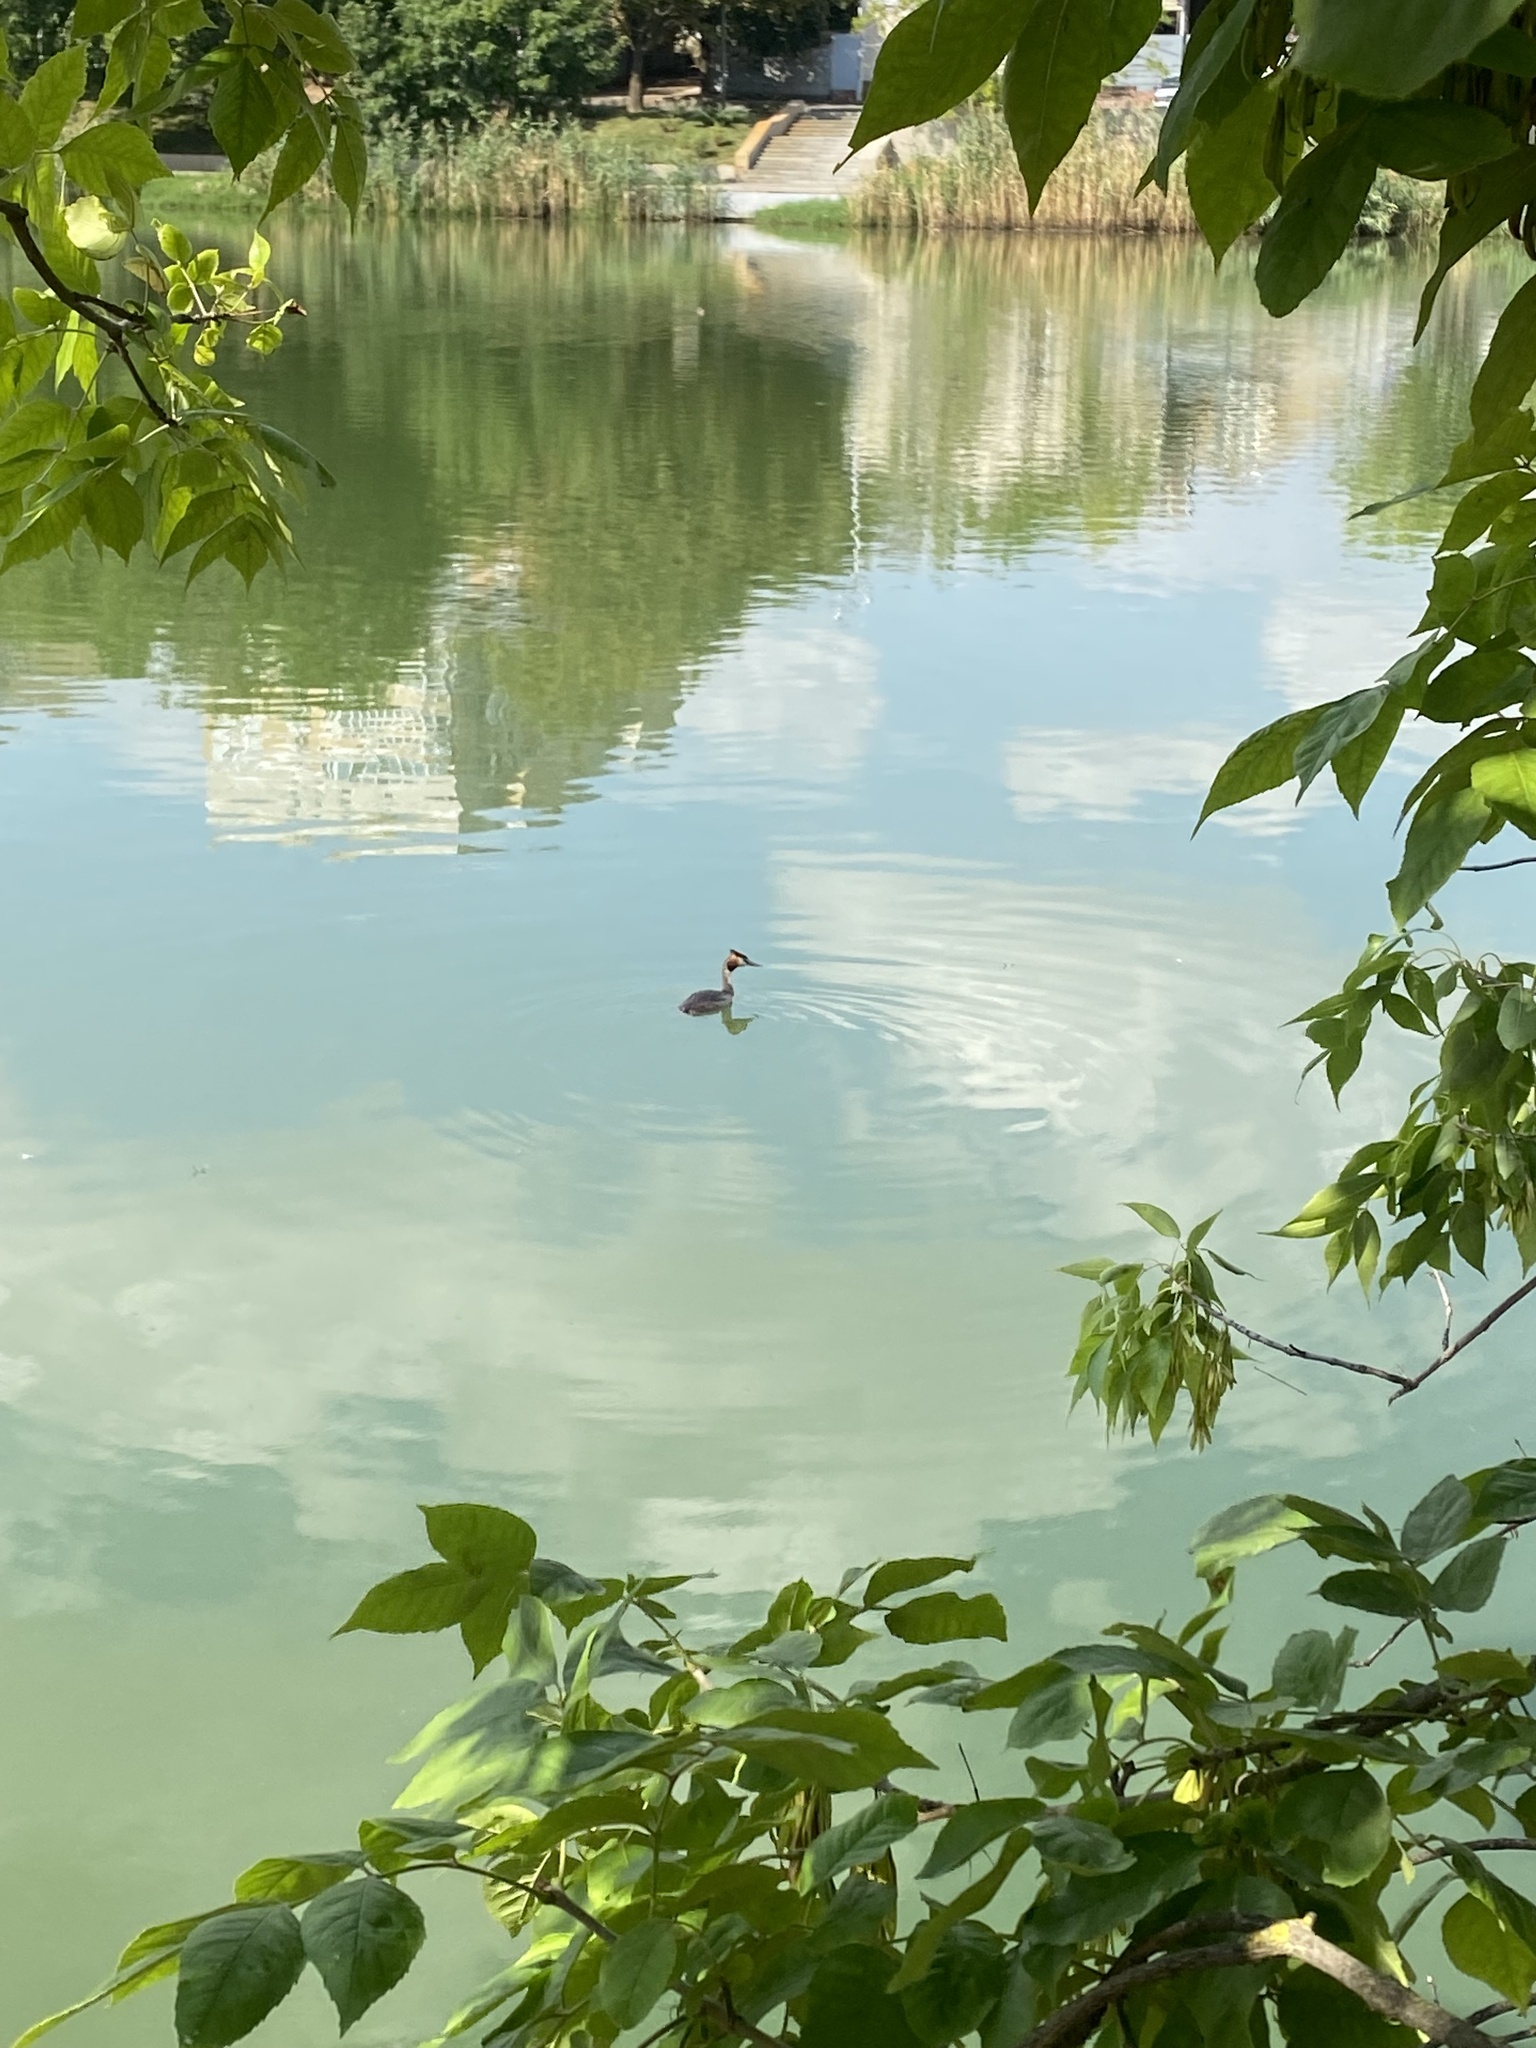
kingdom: Animalia
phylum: Chordata
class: Aves
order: Podicipediformes
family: Podicipedidae
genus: Podiceps
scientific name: Podiceps cristatus
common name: Great crested grebe
